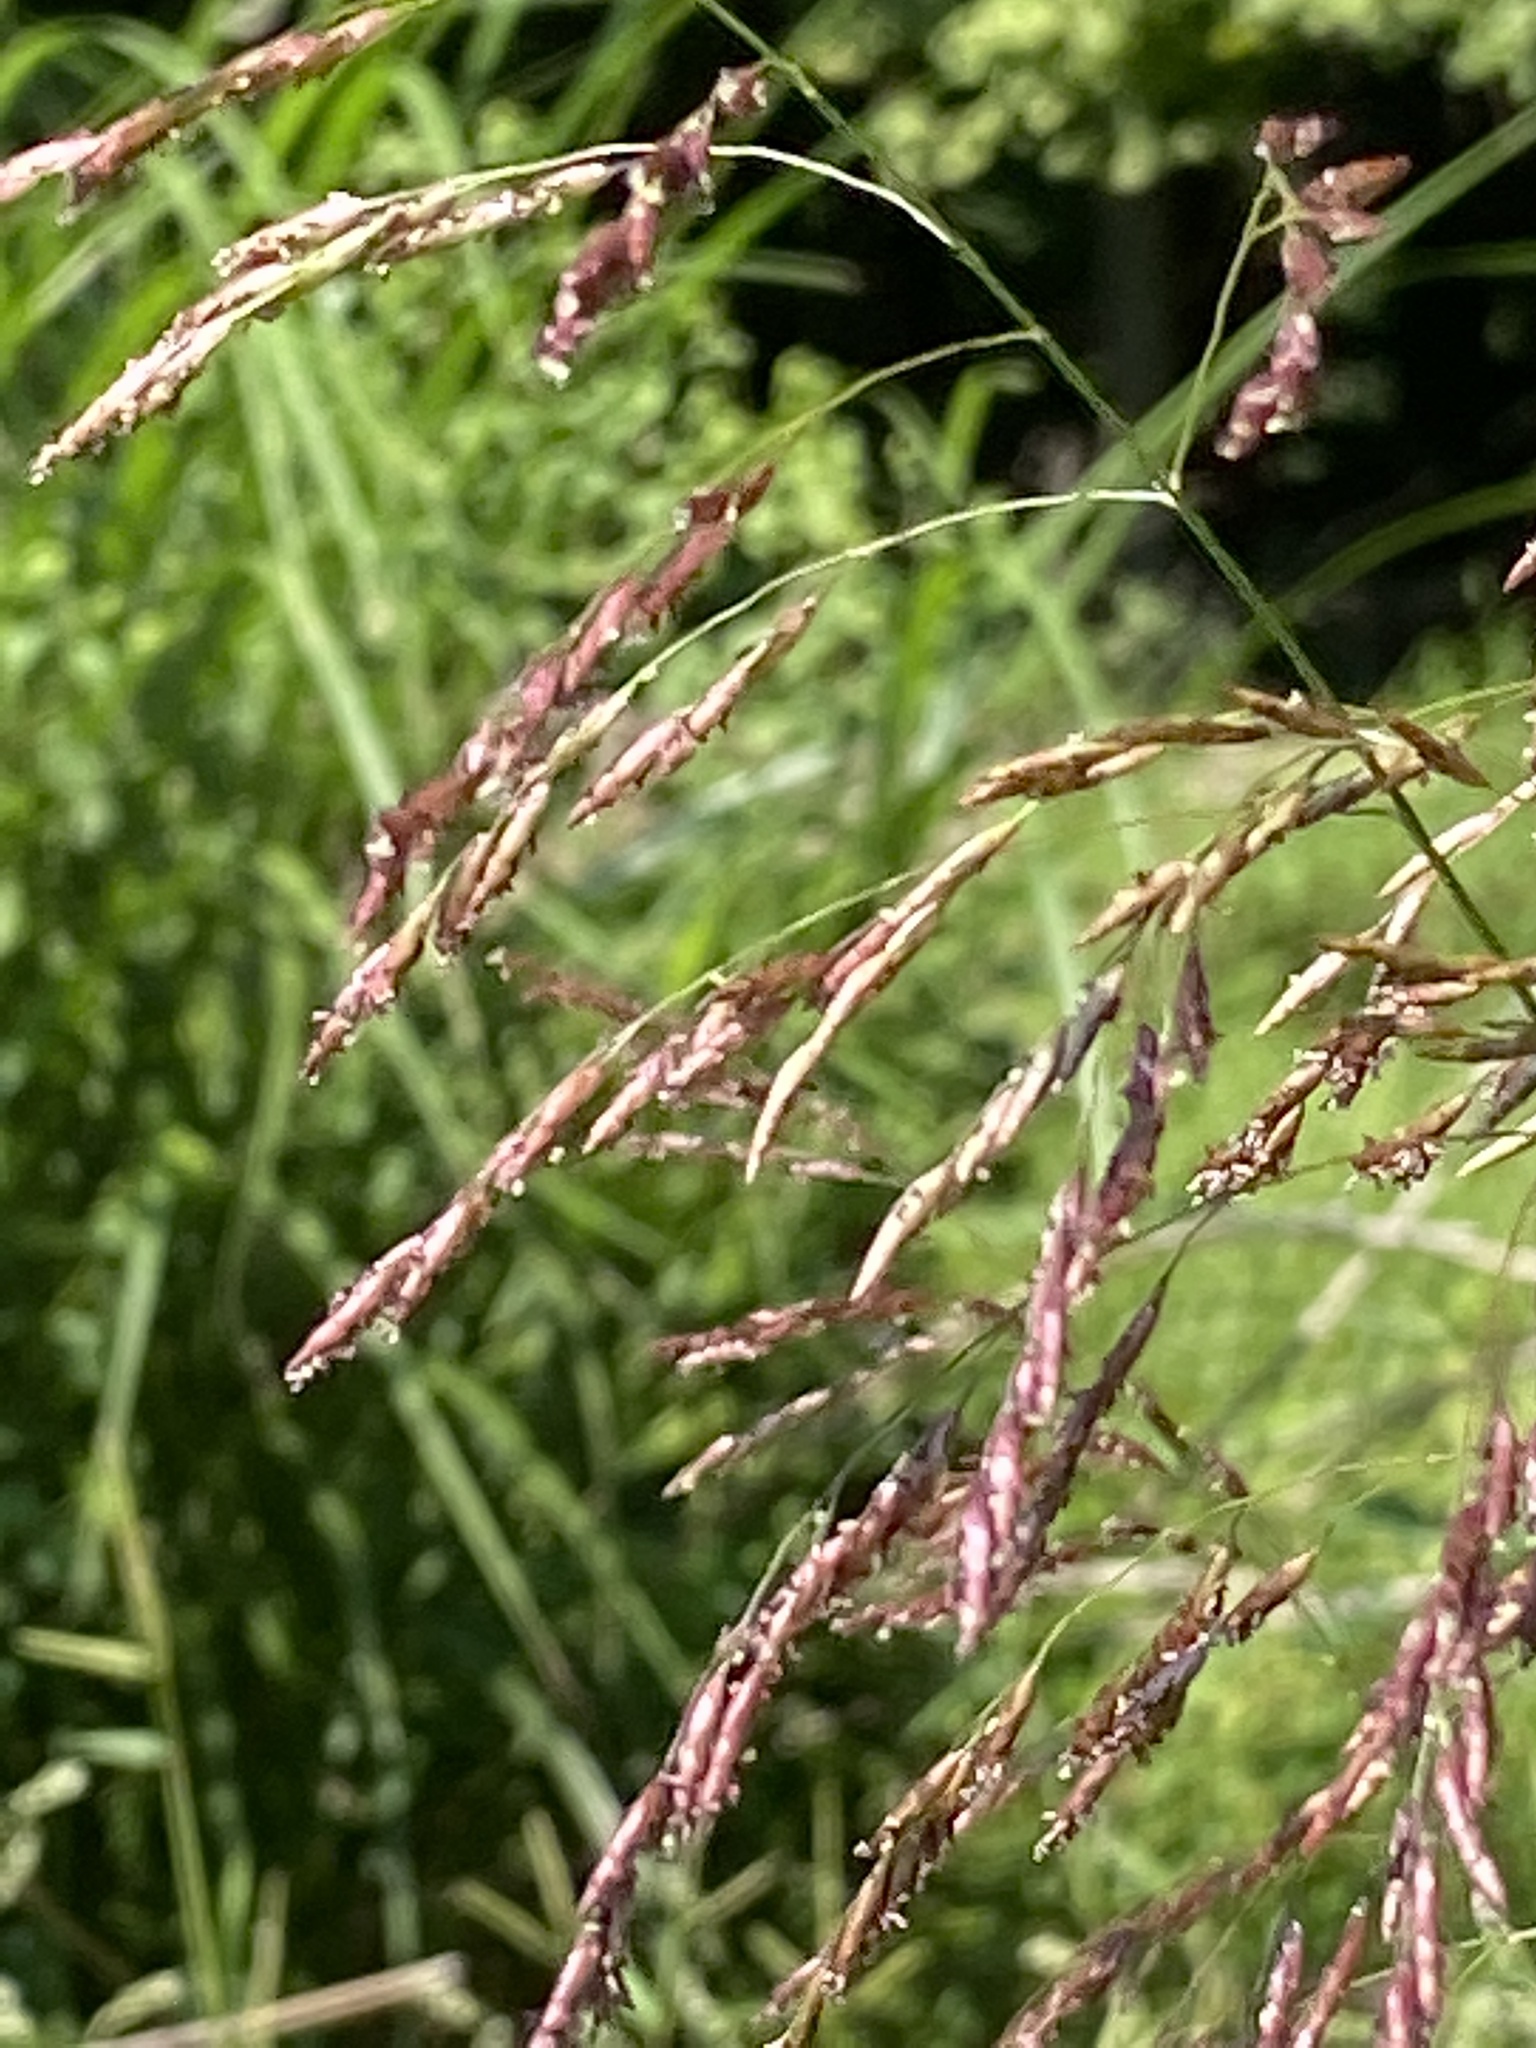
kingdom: Plantae
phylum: Tracheophyta
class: Liliopsida
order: Poales
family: Poaceae
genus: Tridens
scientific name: Tridens flavus
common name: Purpletop
